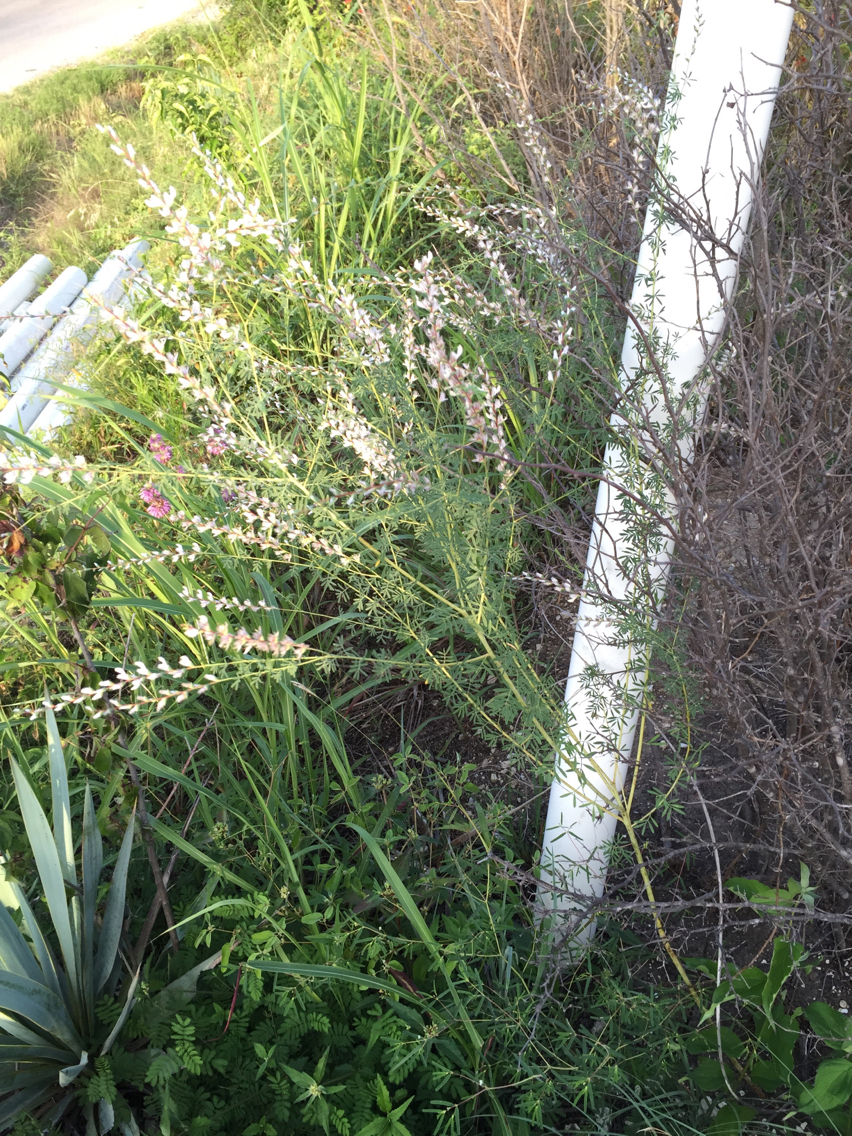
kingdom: Plantae
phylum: Tracheophyta
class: Magnoliopsida
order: Fabales
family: Fabaceae
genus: Dalea
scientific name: Dalea enneandra
